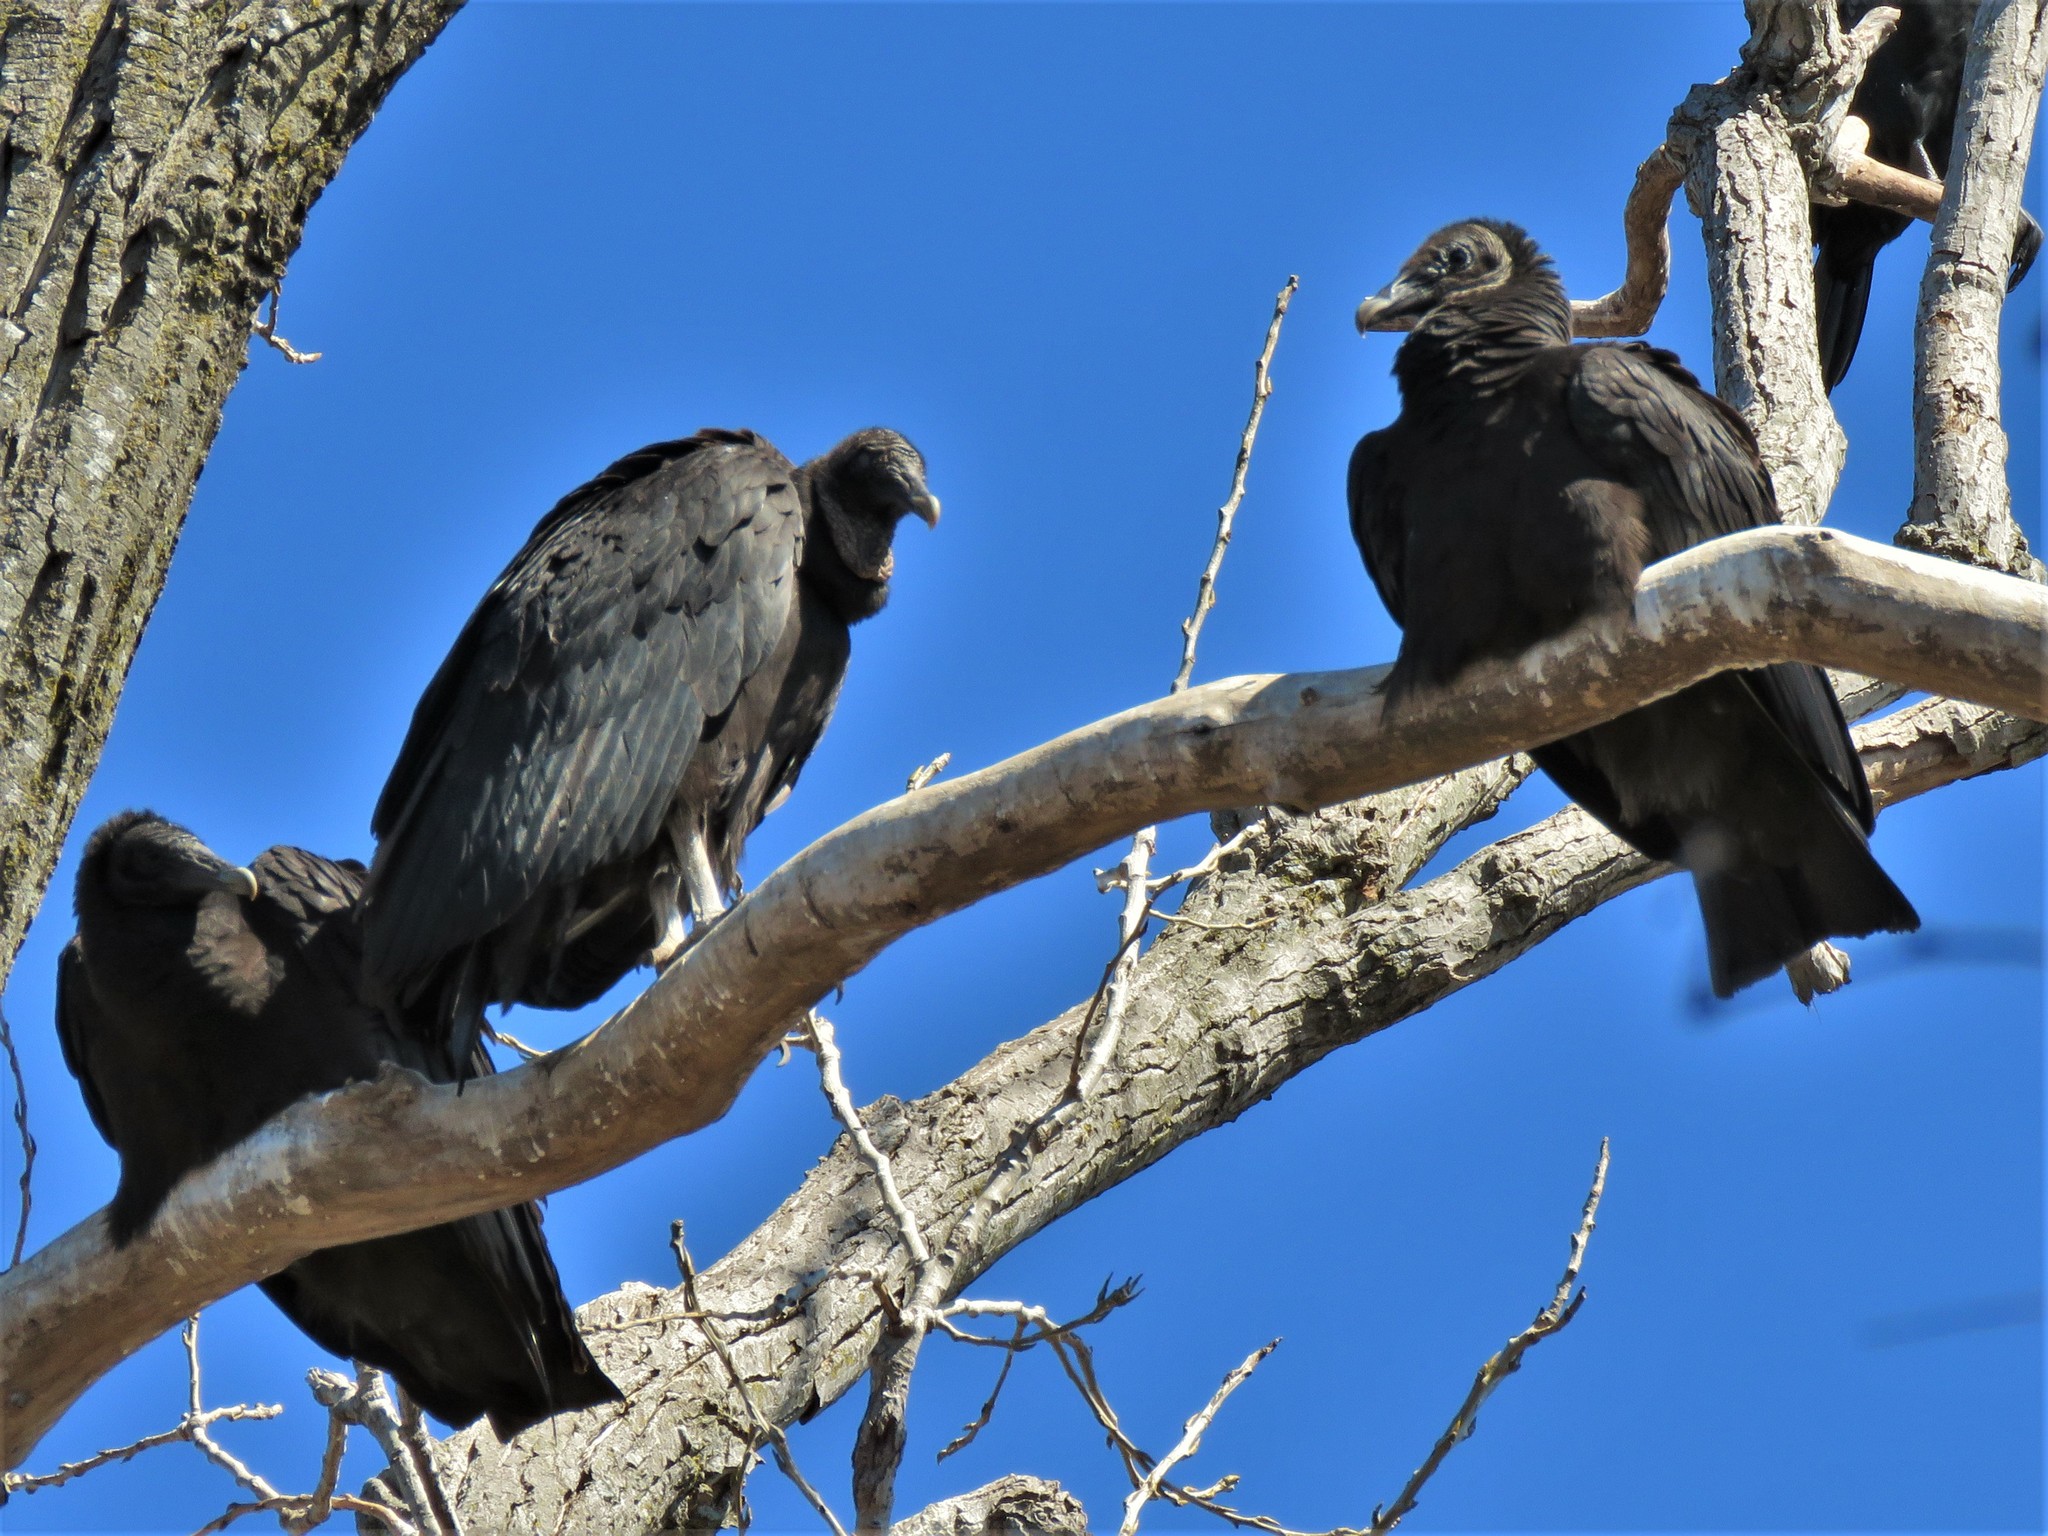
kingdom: Animalia
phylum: Chordata
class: Aves
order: Accipitriformes
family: Cathartidae
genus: Coragyps
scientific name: Coragyps atratus
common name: Black vulture
